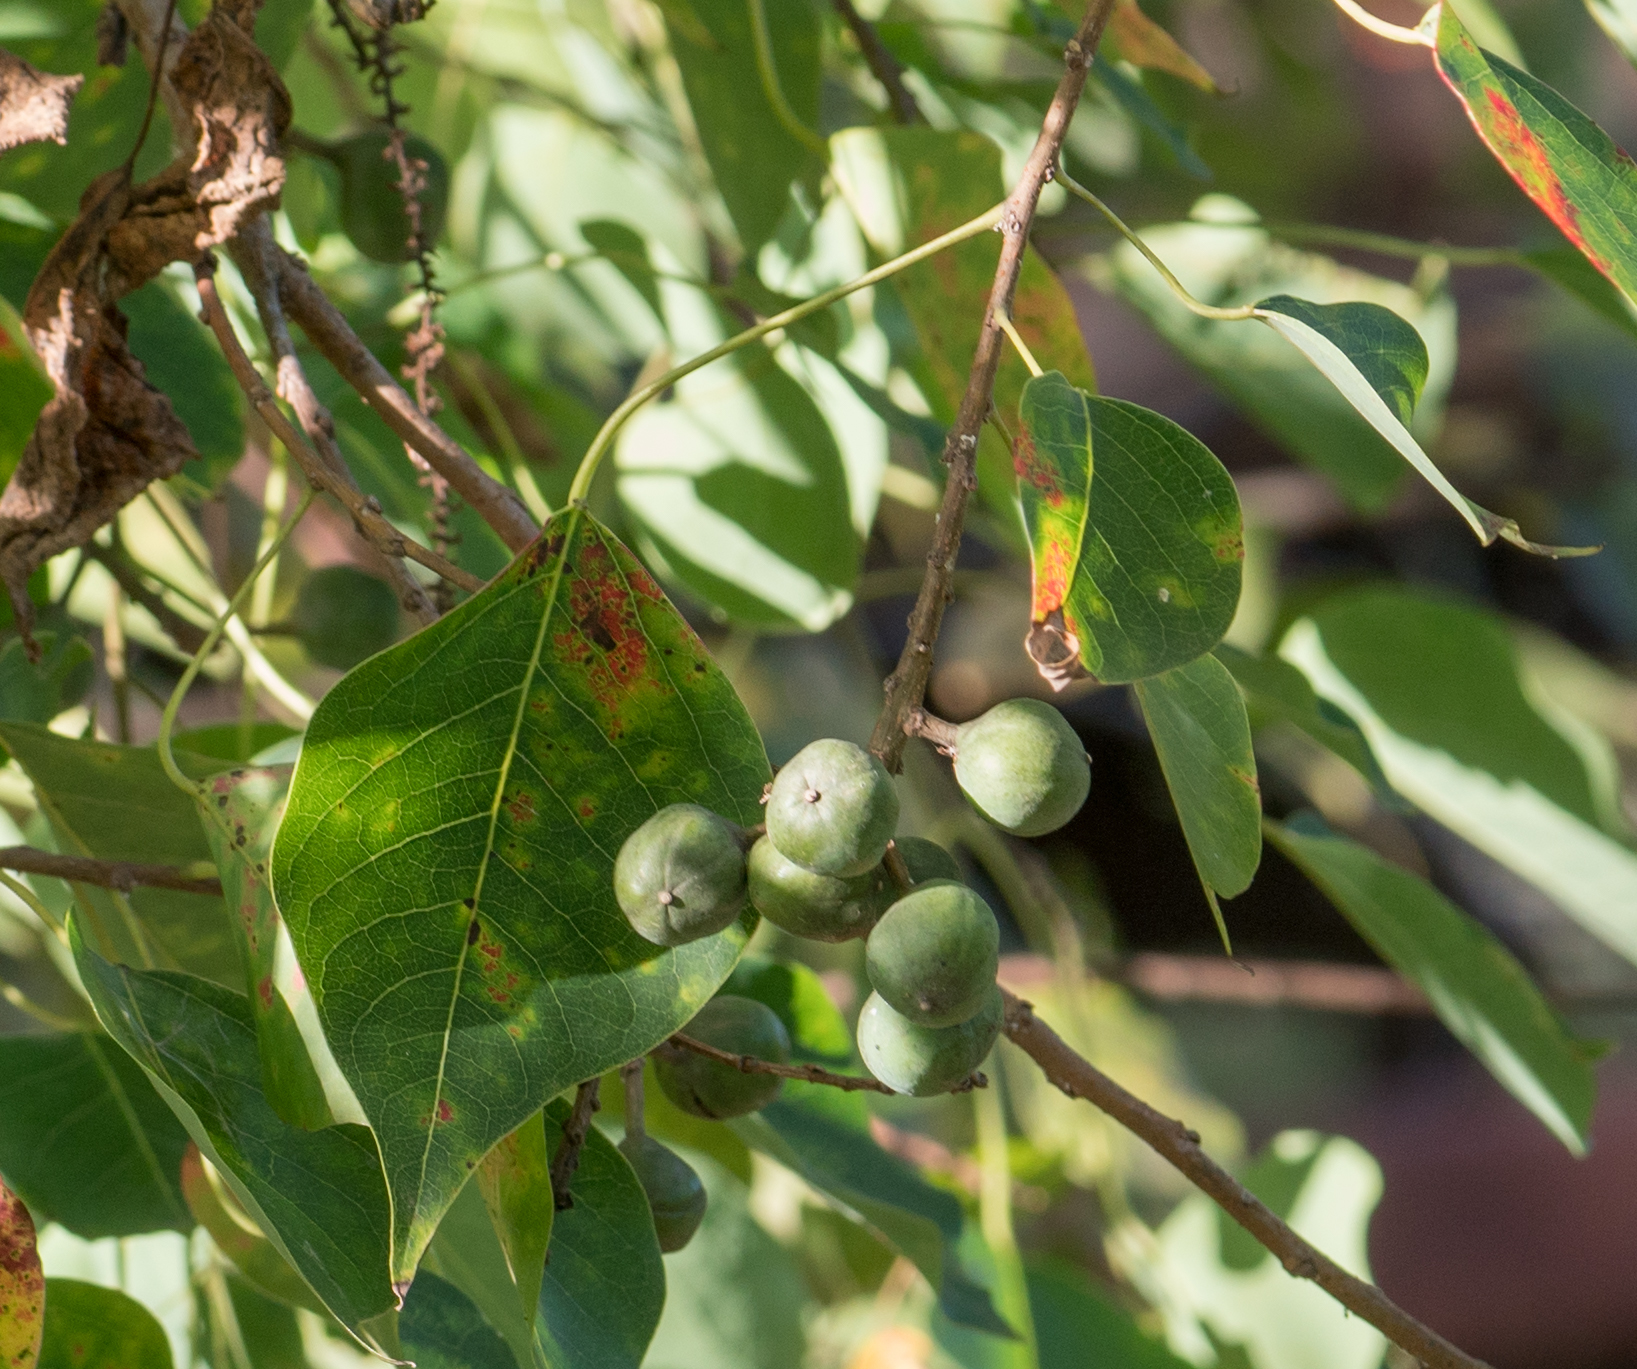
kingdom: Plantae
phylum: Tracheophyta
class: Magnoliopsida
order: Malpighiales
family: Euphorbiaceae
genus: Triadica
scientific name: Triadica sebifera
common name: Chinese tallow
